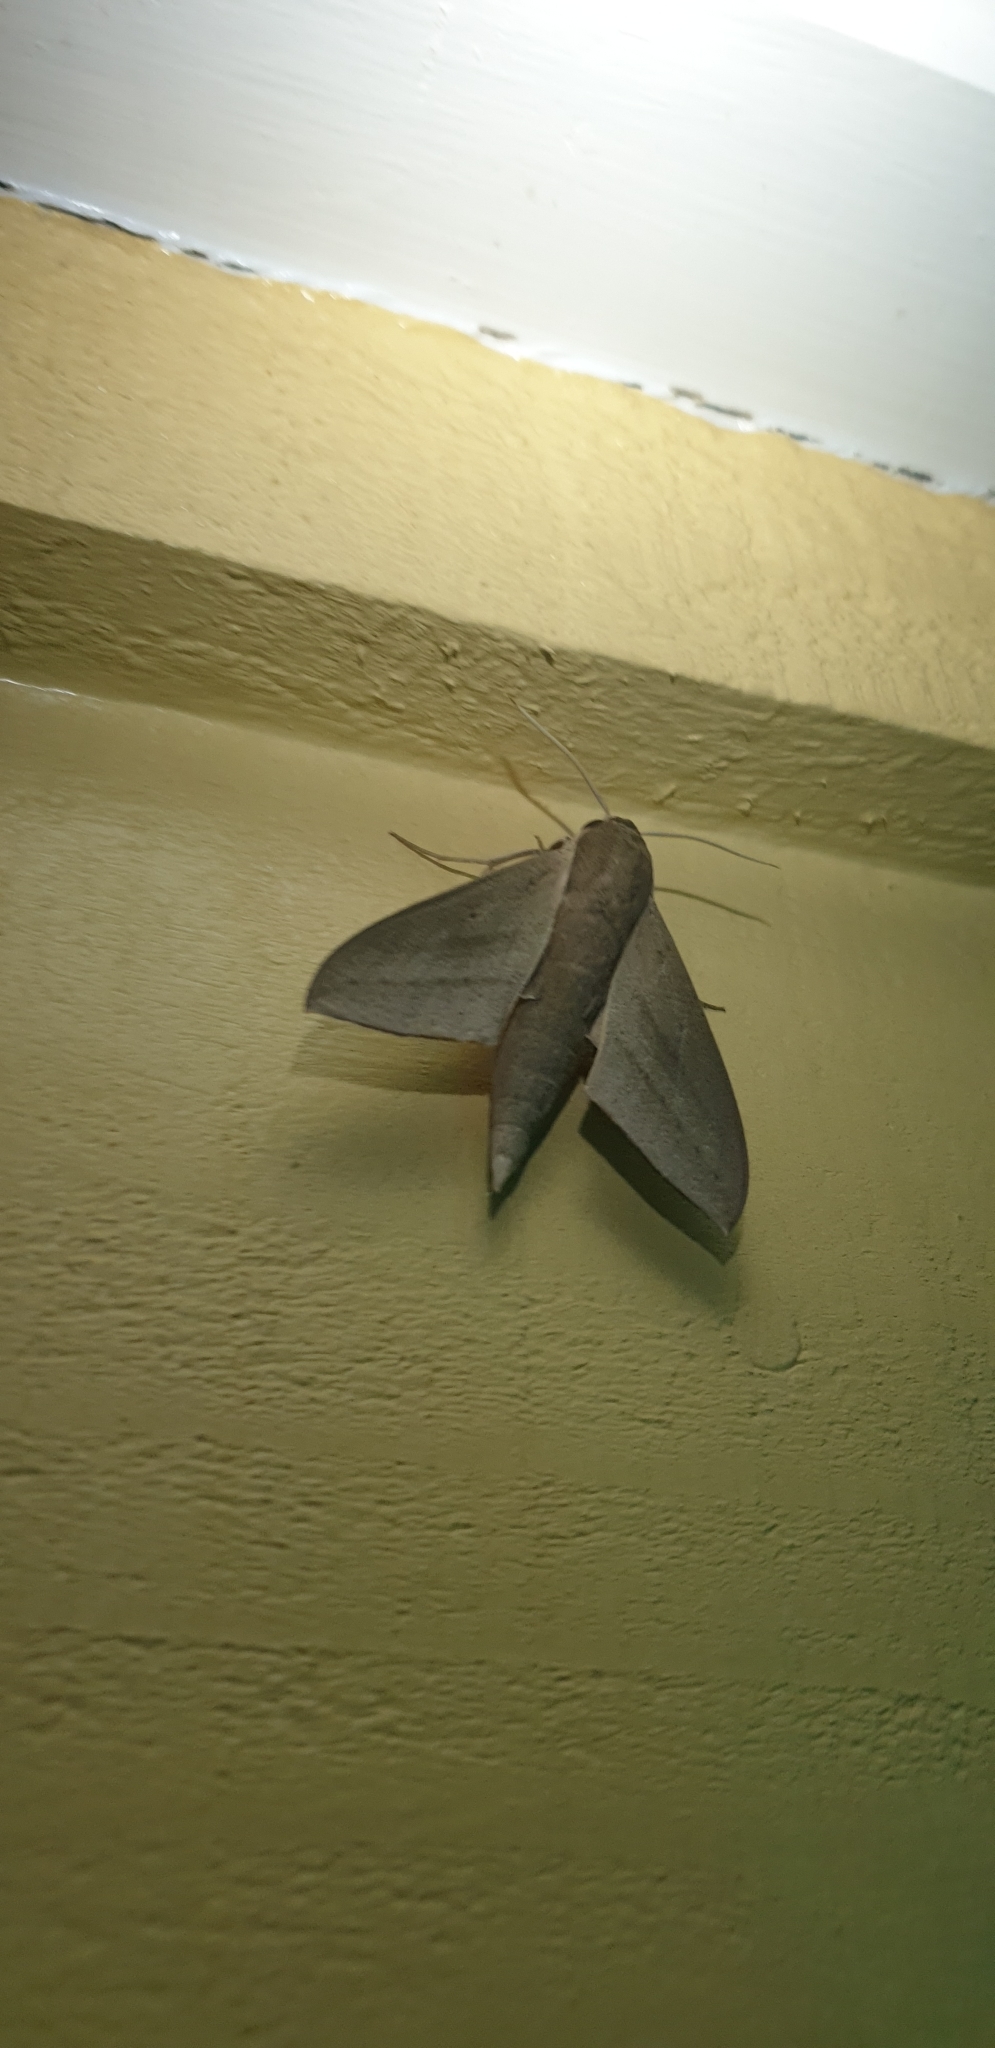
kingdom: Animalia
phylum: Arthropoda
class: Insecta
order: Lepidoptera
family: Sphingidae
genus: Theretra
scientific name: Theretra latreillii
